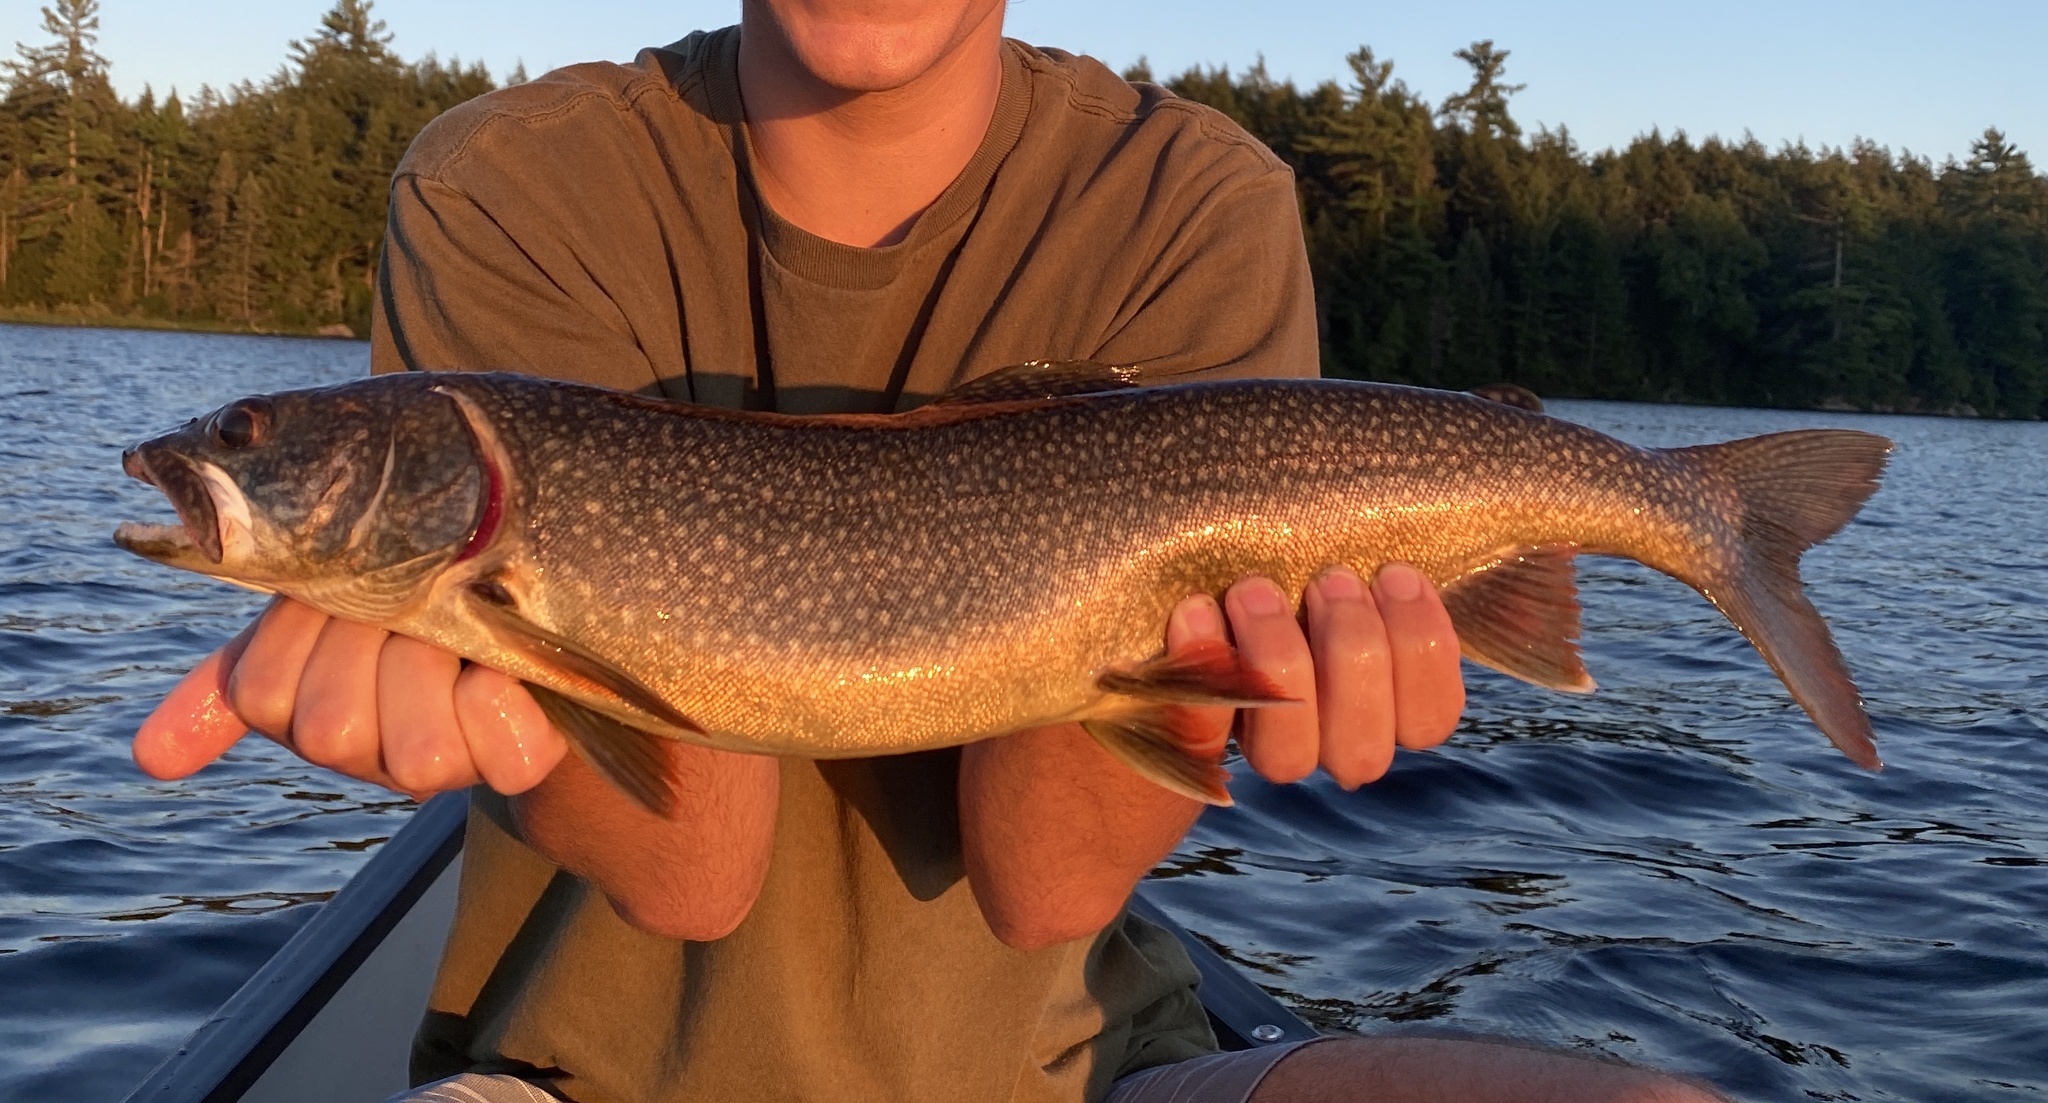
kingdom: Animalia
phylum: Chordata
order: Salmoniformes
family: Salmonidae
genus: Salvelinus
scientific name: Salvelinus namaycush
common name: American lake charr
